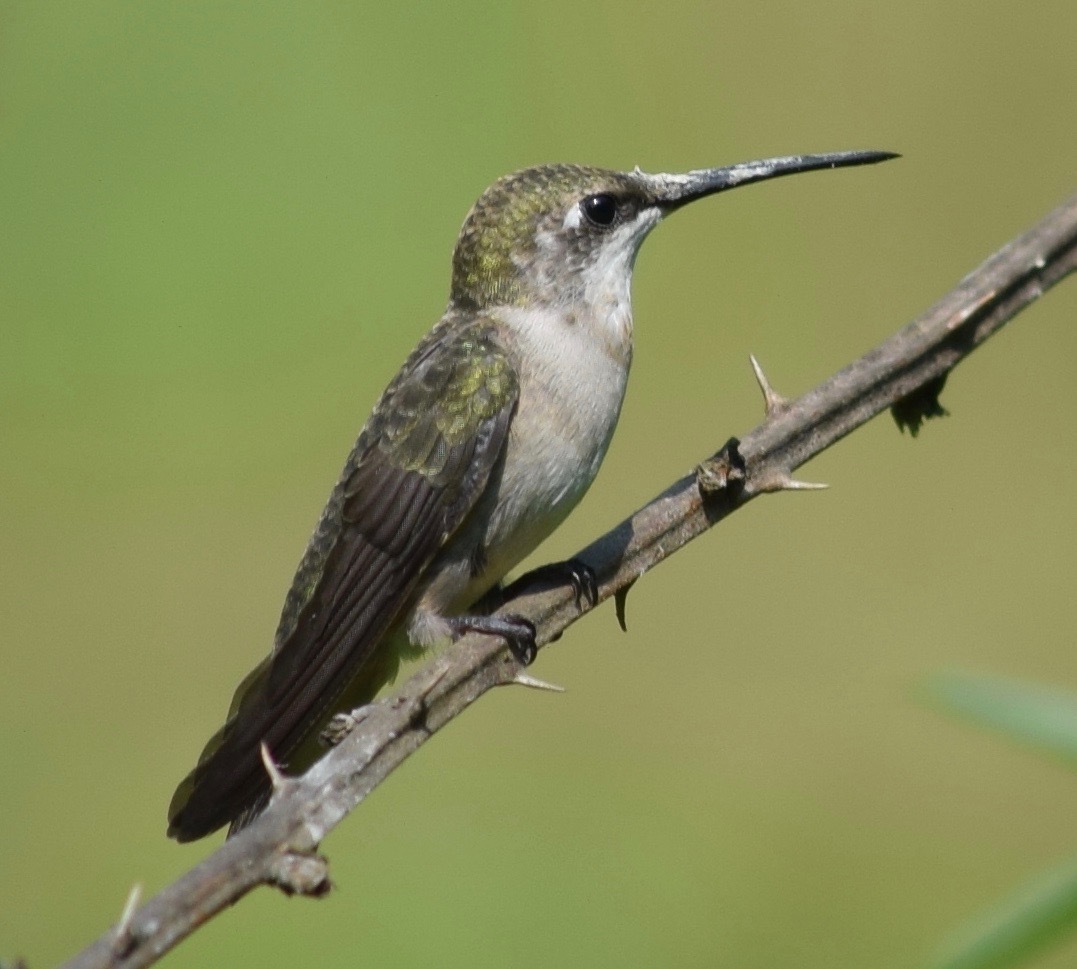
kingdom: Animalia
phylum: Chordata
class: Aves
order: Apodiformes
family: Trochilidae
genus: Archilochus
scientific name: Archilochus colubris
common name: Ruby-throated hummingbird
